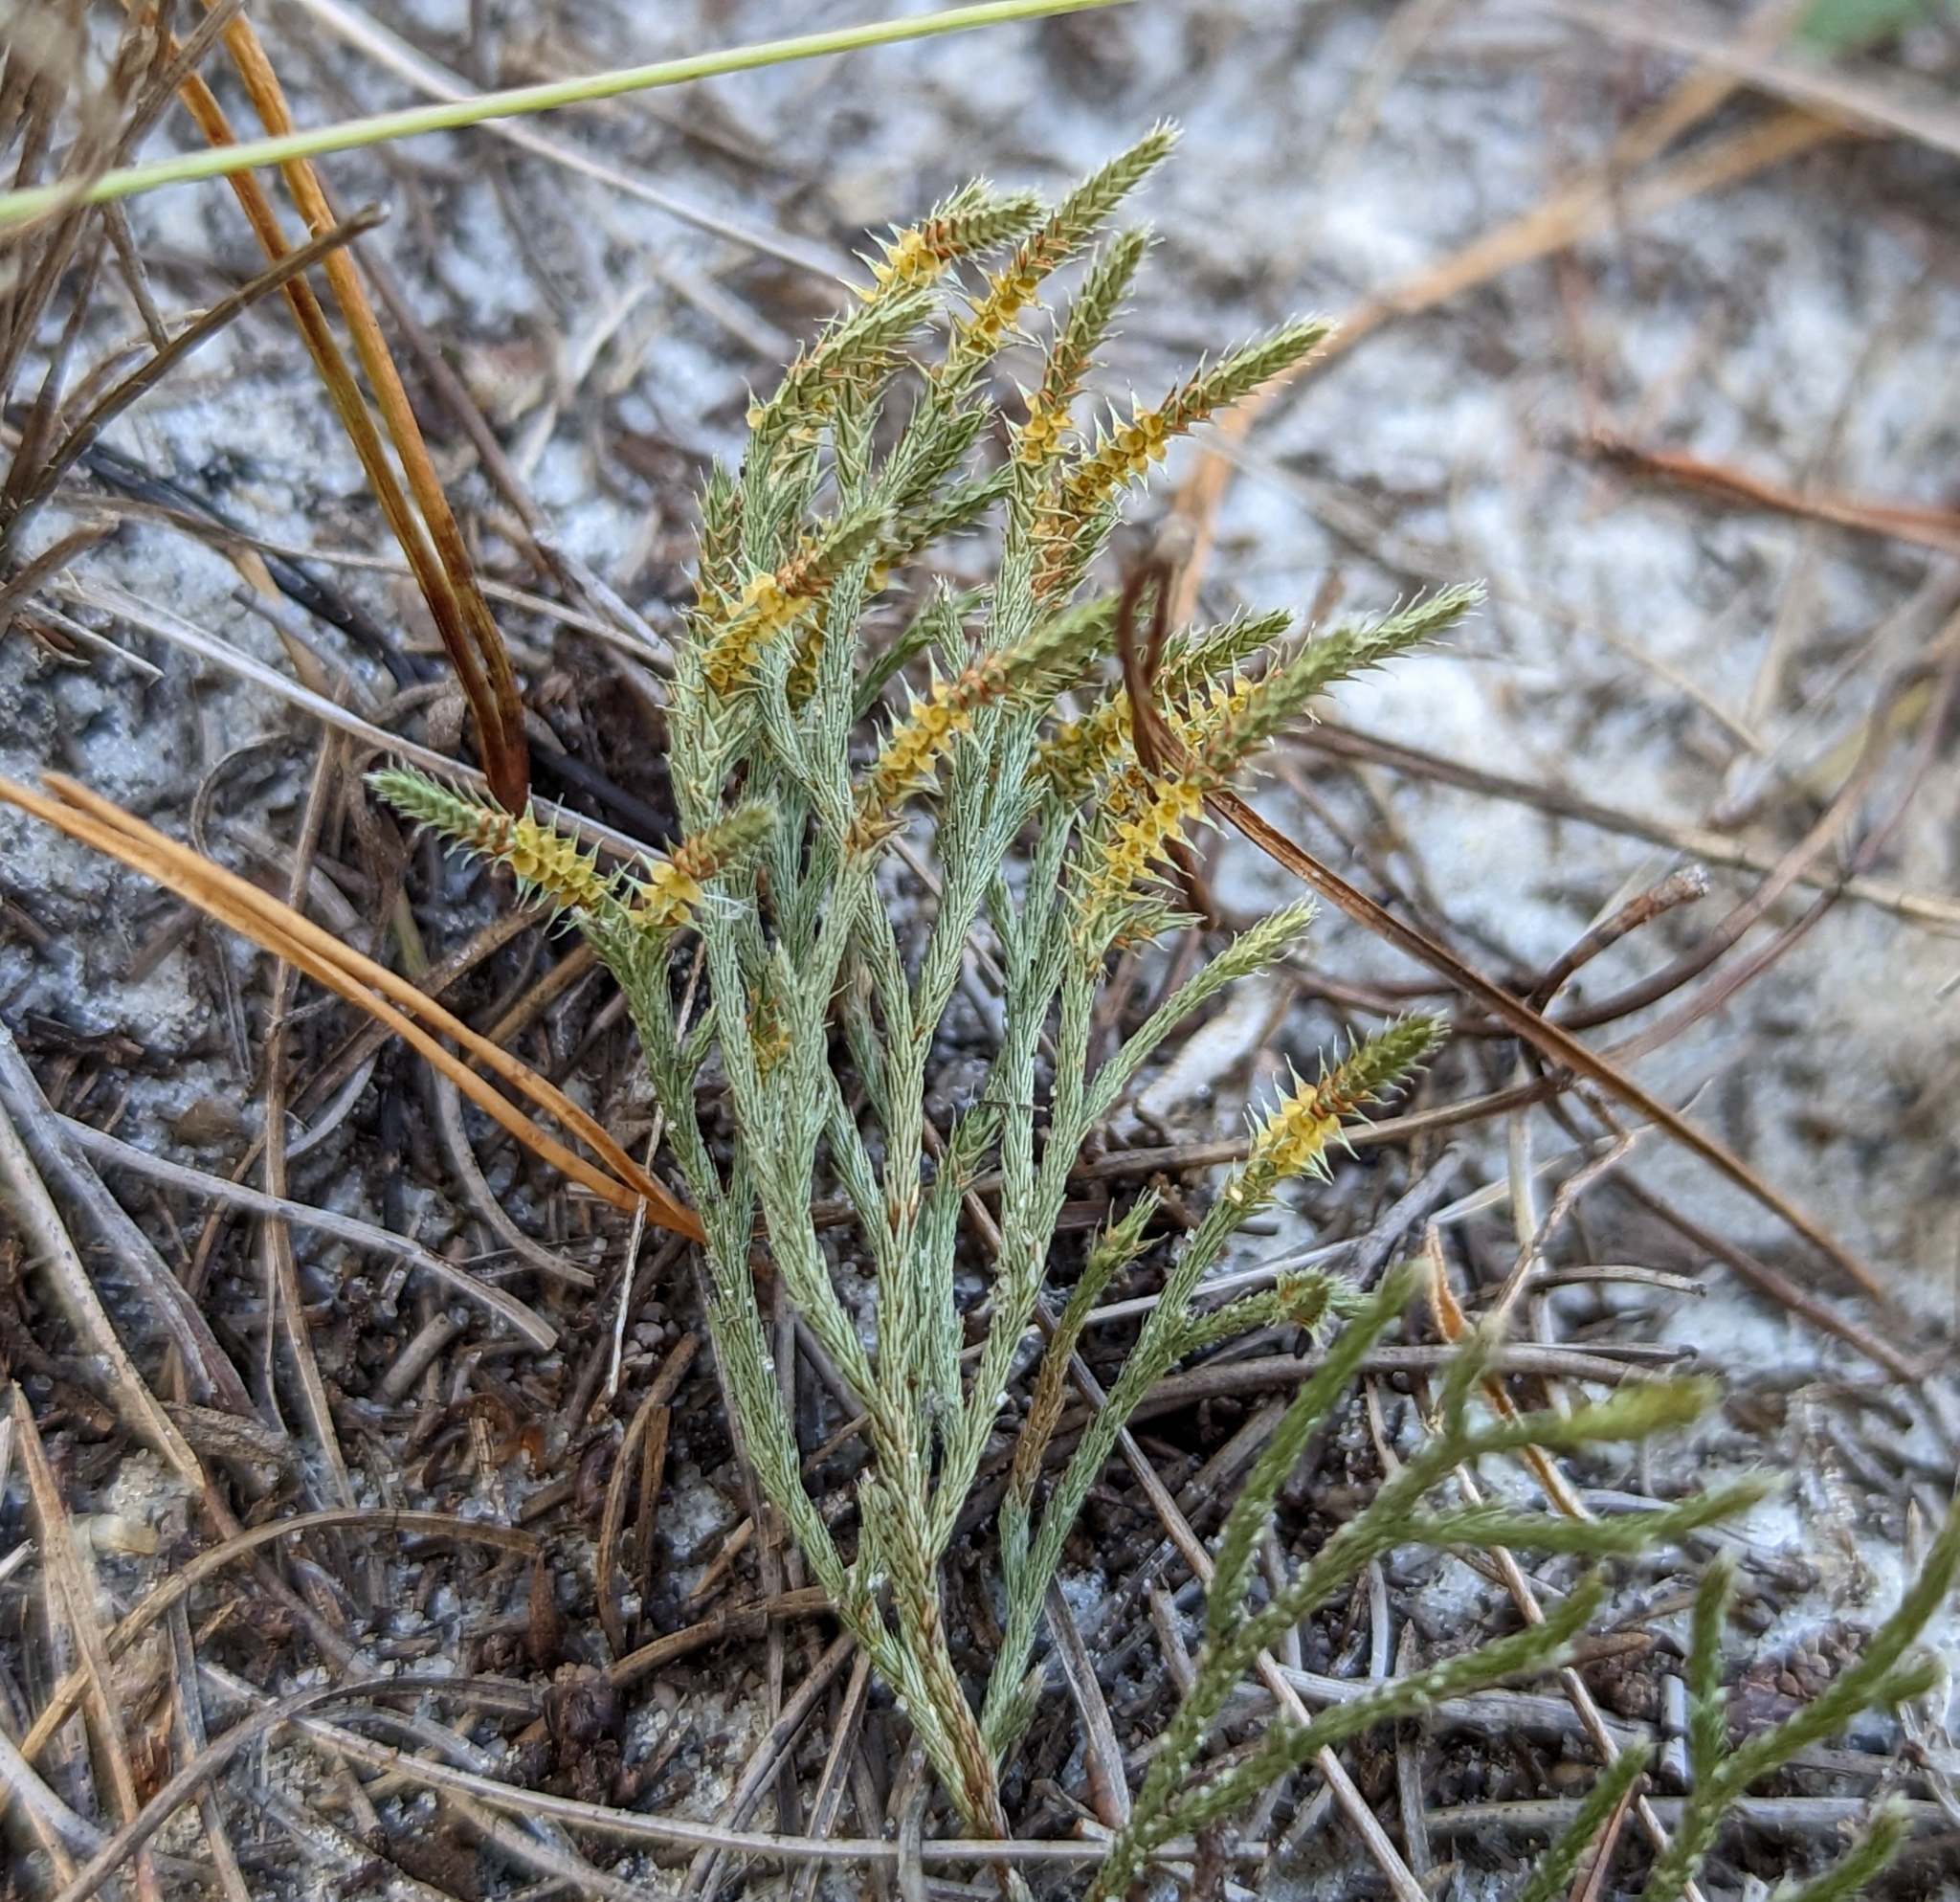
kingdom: Plantae
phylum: Tracheophyta
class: Lycopodiopsida
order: Selaginellales
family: Selaginellaceae
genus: Selaginella
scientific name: Selaginella arenicola
